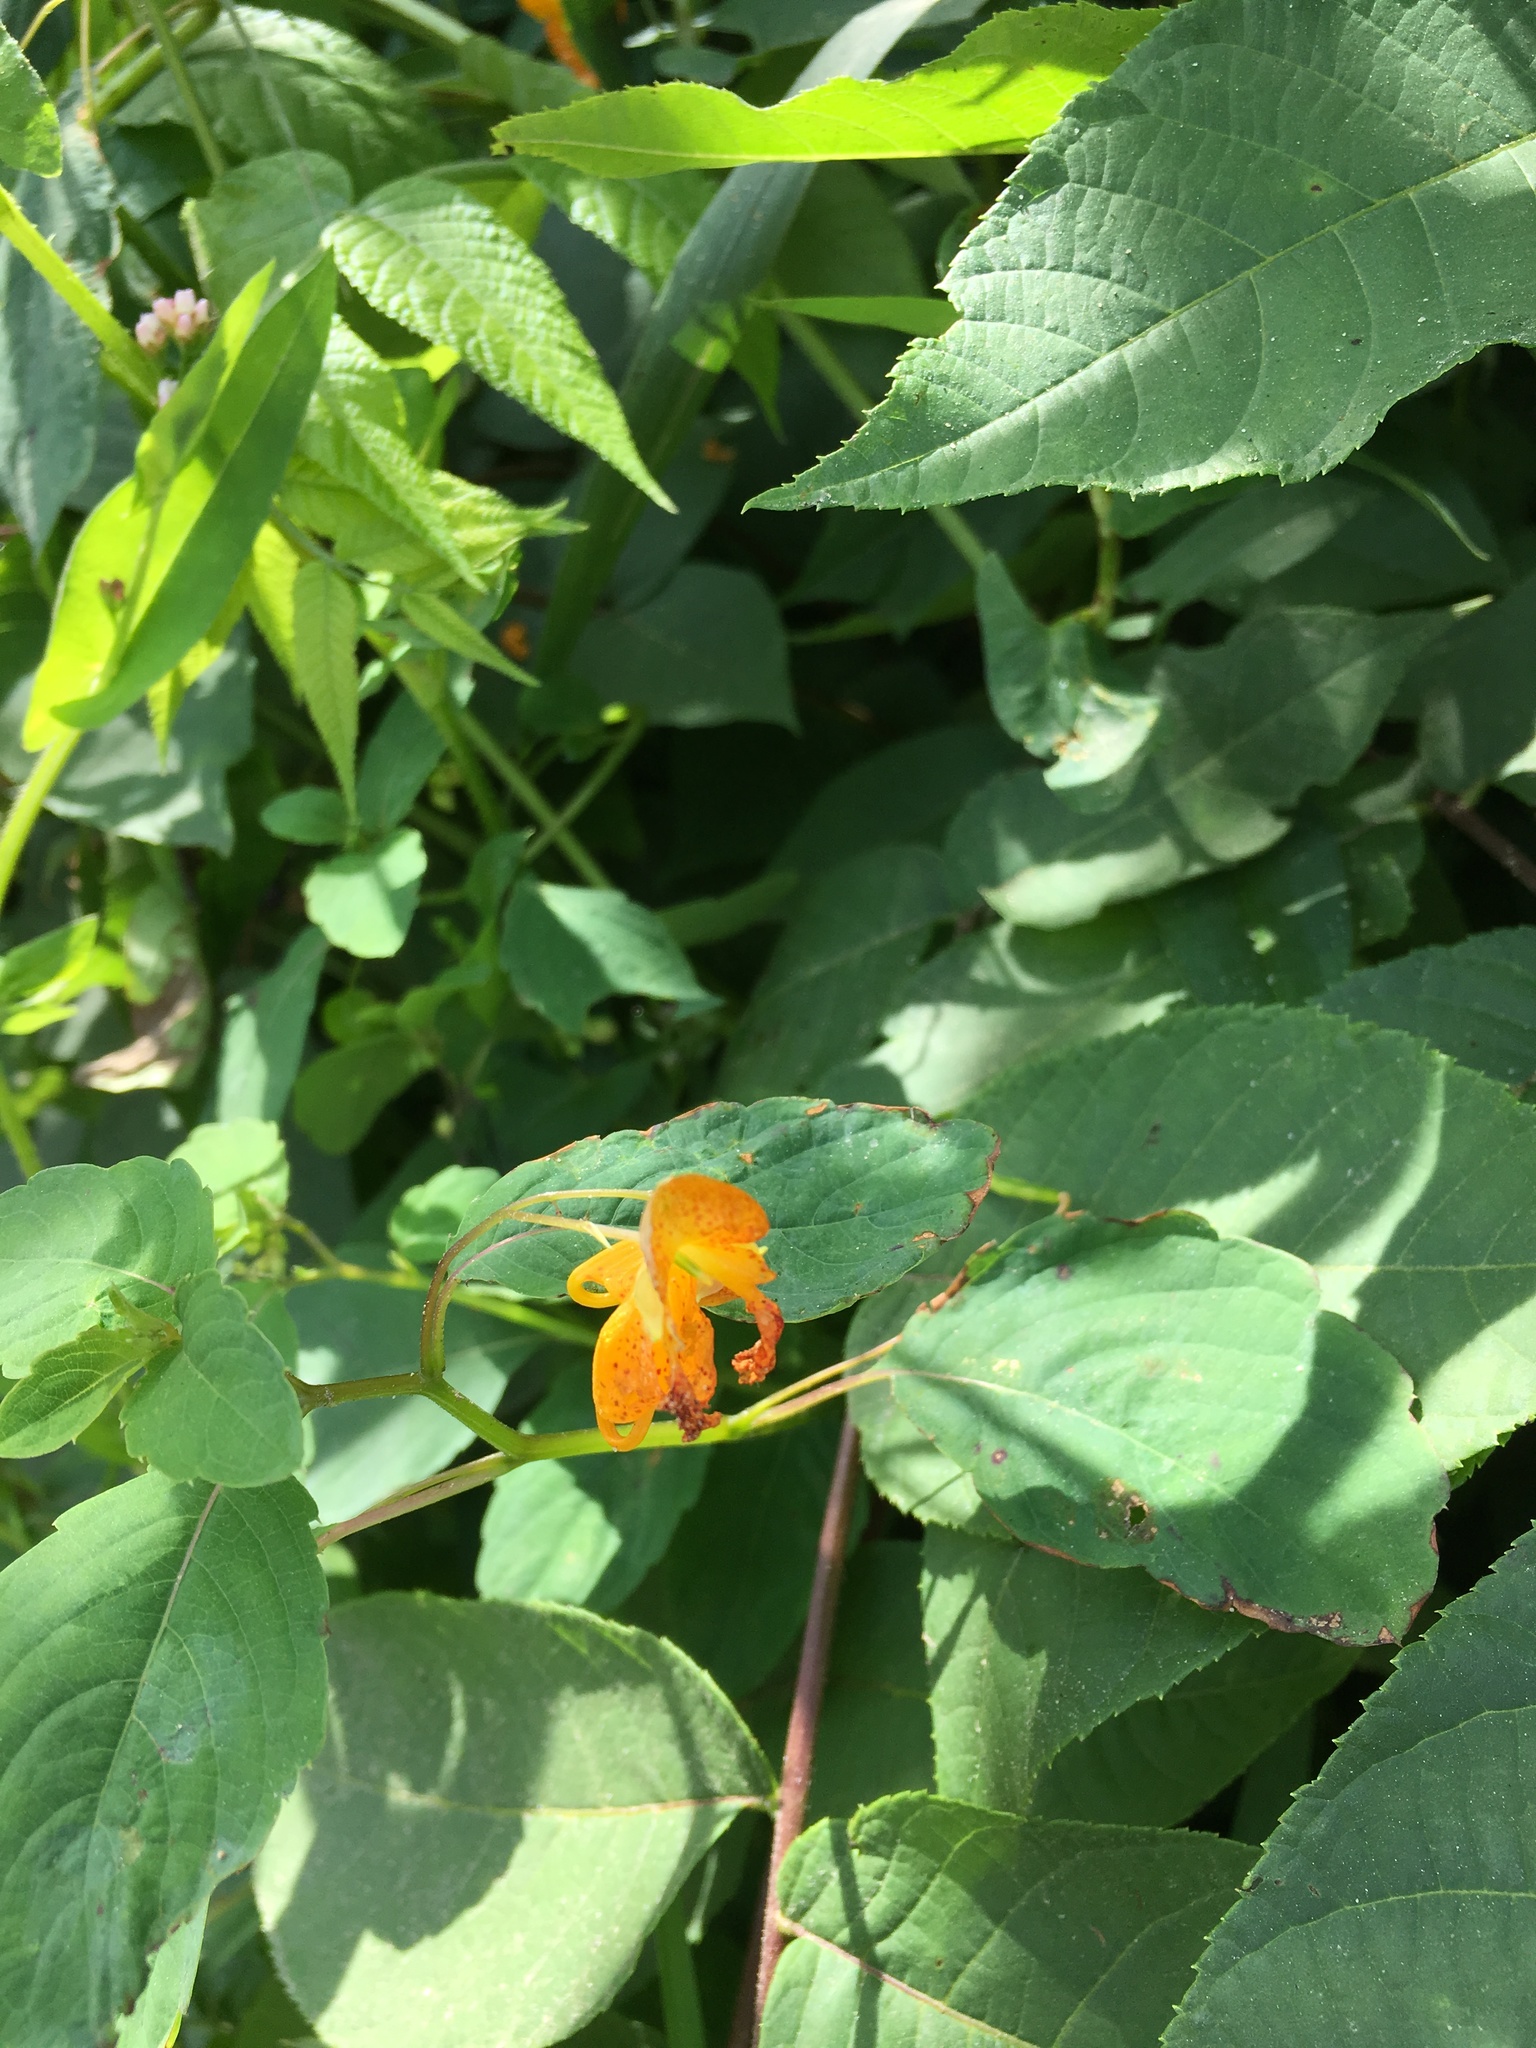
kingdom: Plantae
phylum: Tracheophyta
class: Magnoliopsida
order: Ericales
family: Balsaminaceae
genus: Impatiens
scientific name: Impatiens capensis
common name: Orange balsam
